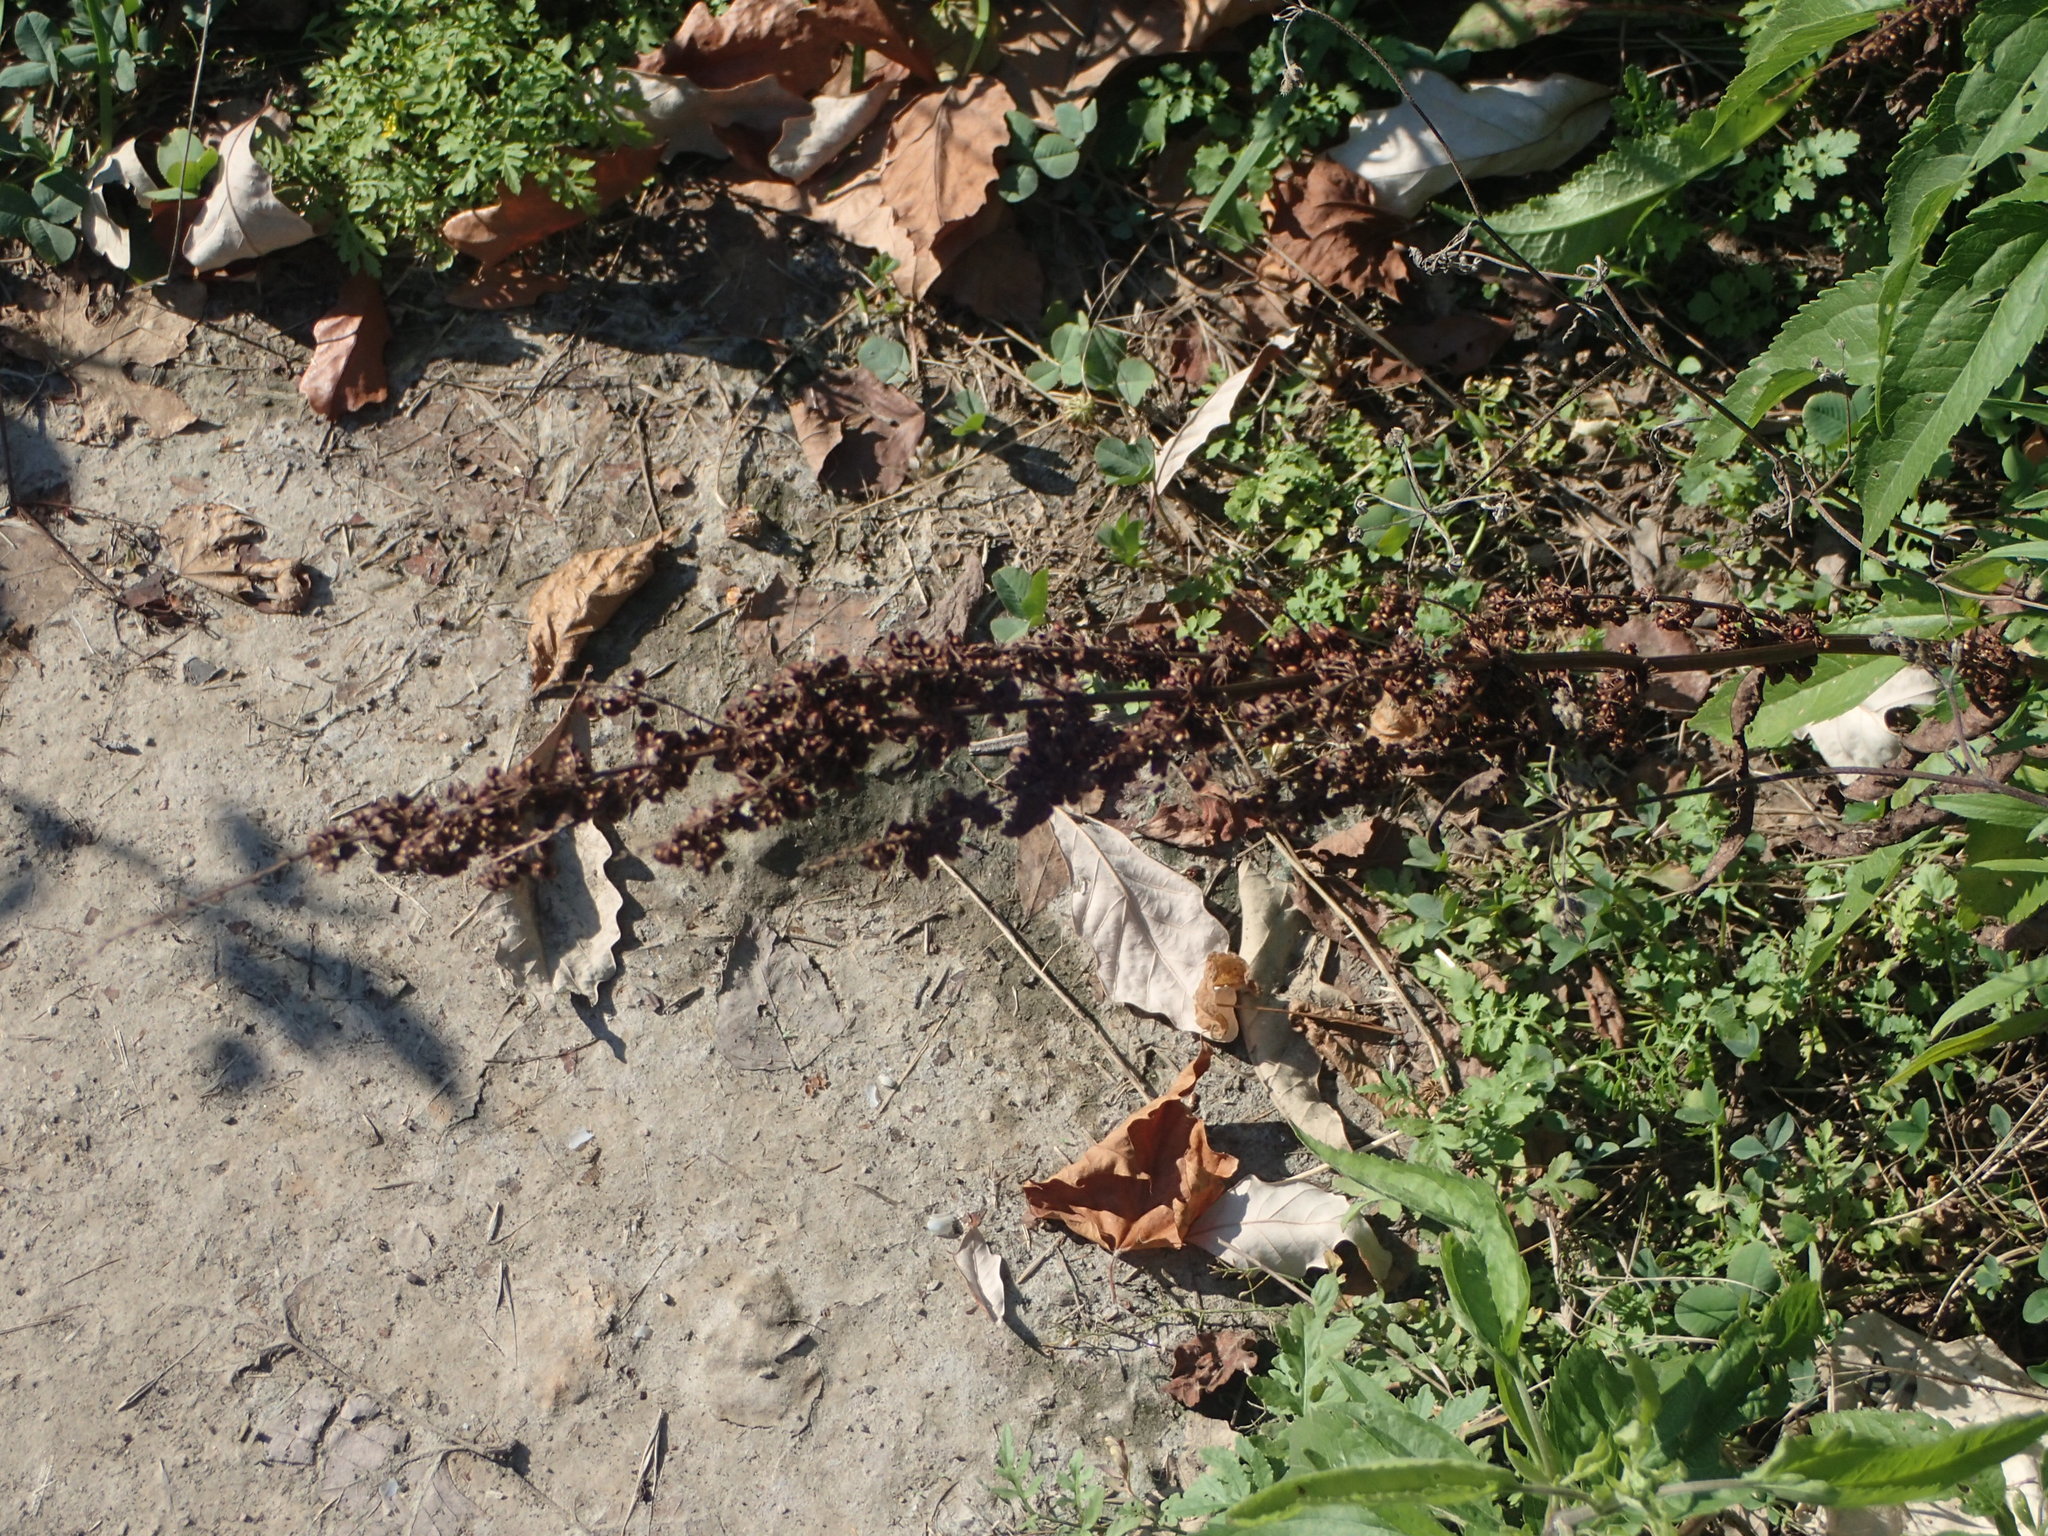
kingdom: Plantae
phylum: Tracheophyta
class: Magnoliopsida
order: Caryophyllales
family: Polygonaceae
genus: Rumex
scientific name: Rumex crispus
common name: Curled dock
